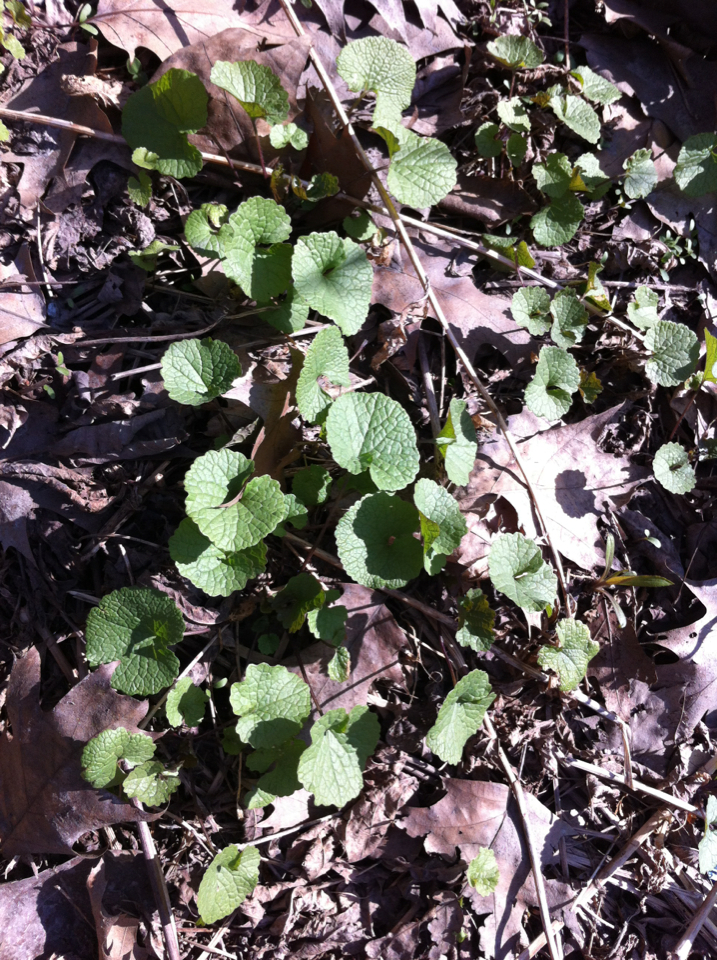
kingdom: Plantae
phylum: Tracheophyta
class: Magnoliopsida
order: Brassicales
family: Brassicaceae
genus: Alliaria
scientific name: Alliaria petiolata
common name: Garlic mustard
